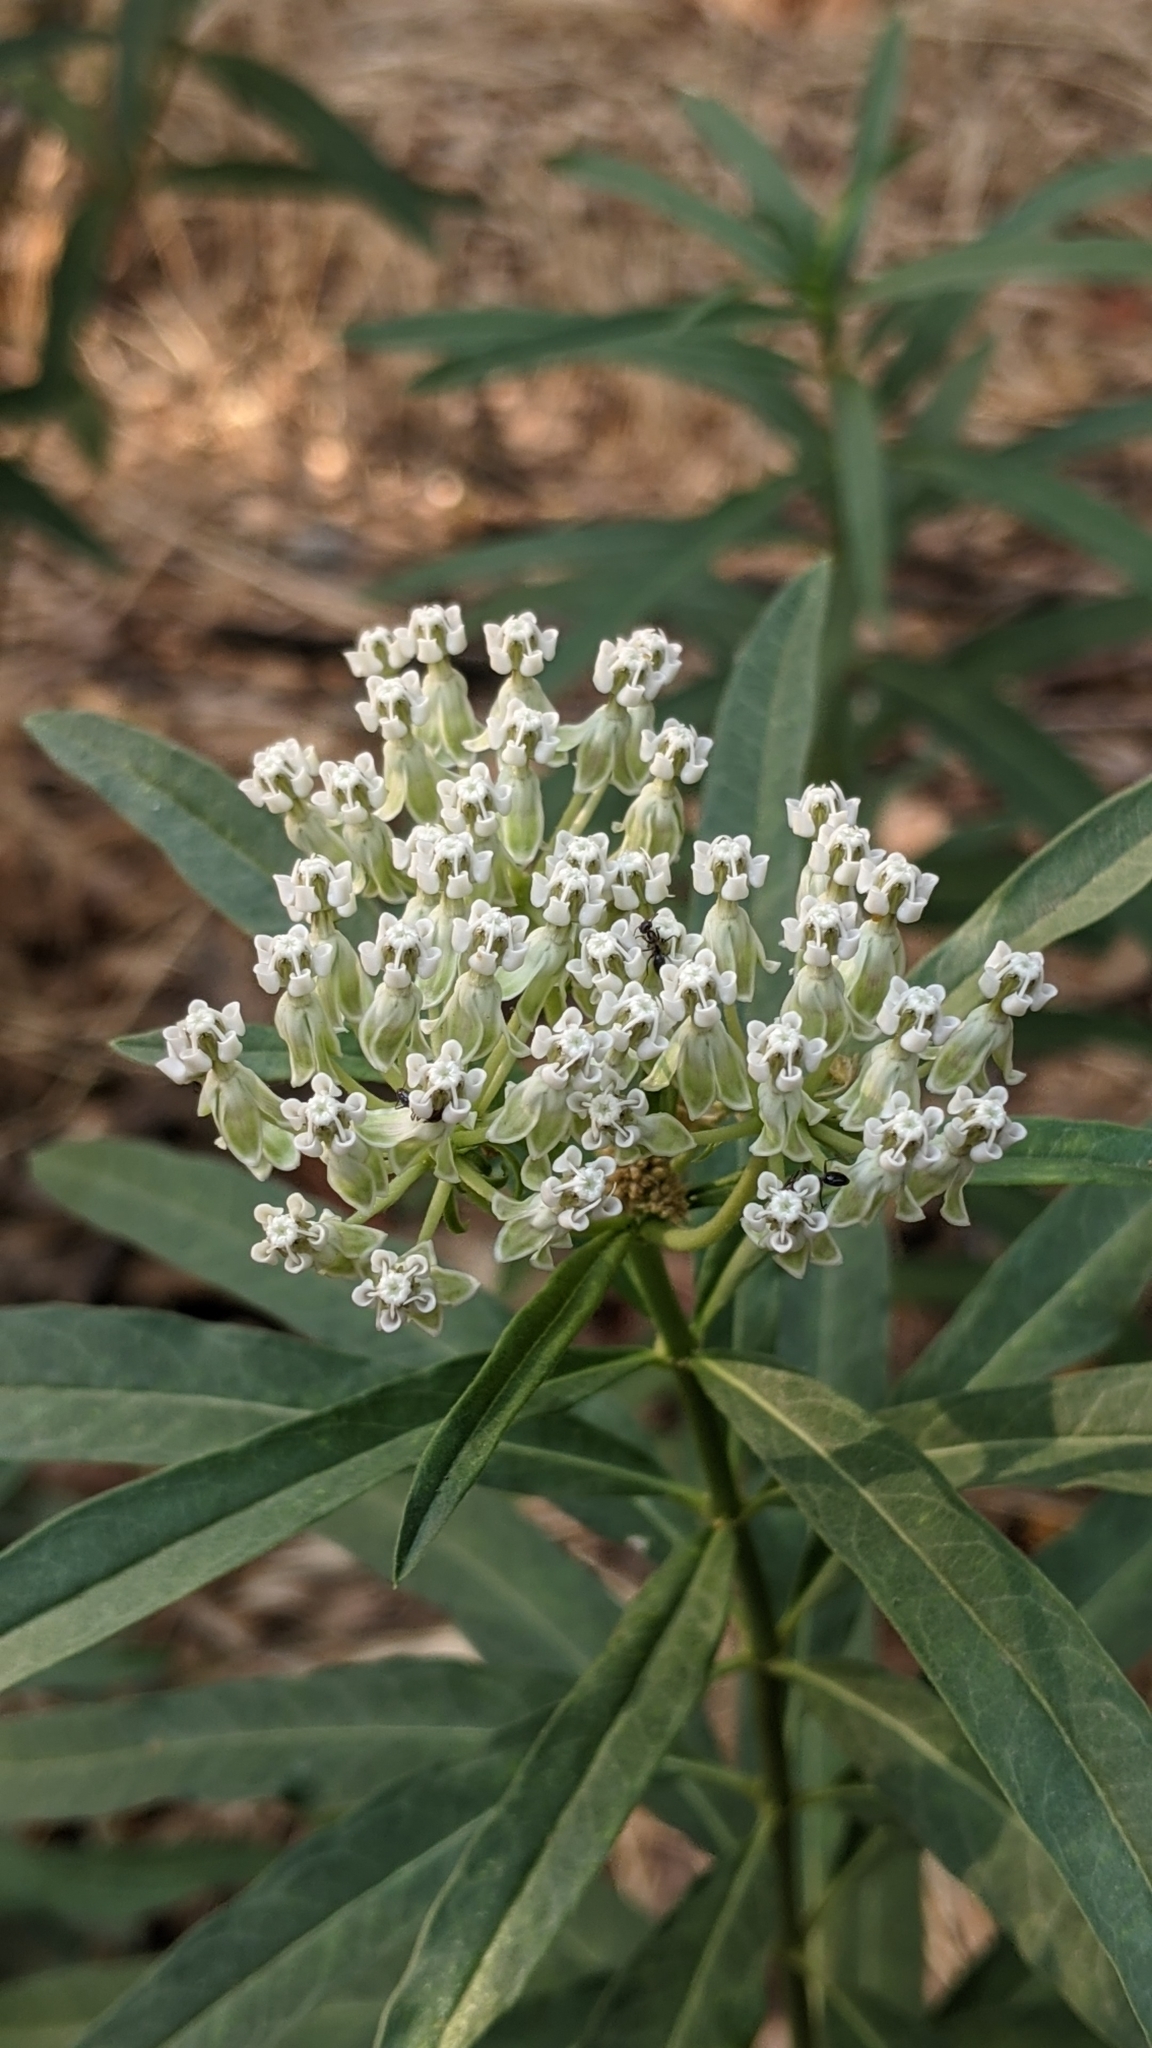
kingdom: Plantae
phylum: Tracheophyta
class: Magnoliopsida
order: Gentianales
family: Apocynaceae
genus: Asclepias
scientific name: Asclepias fascicularis
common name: Mexican milkweed
